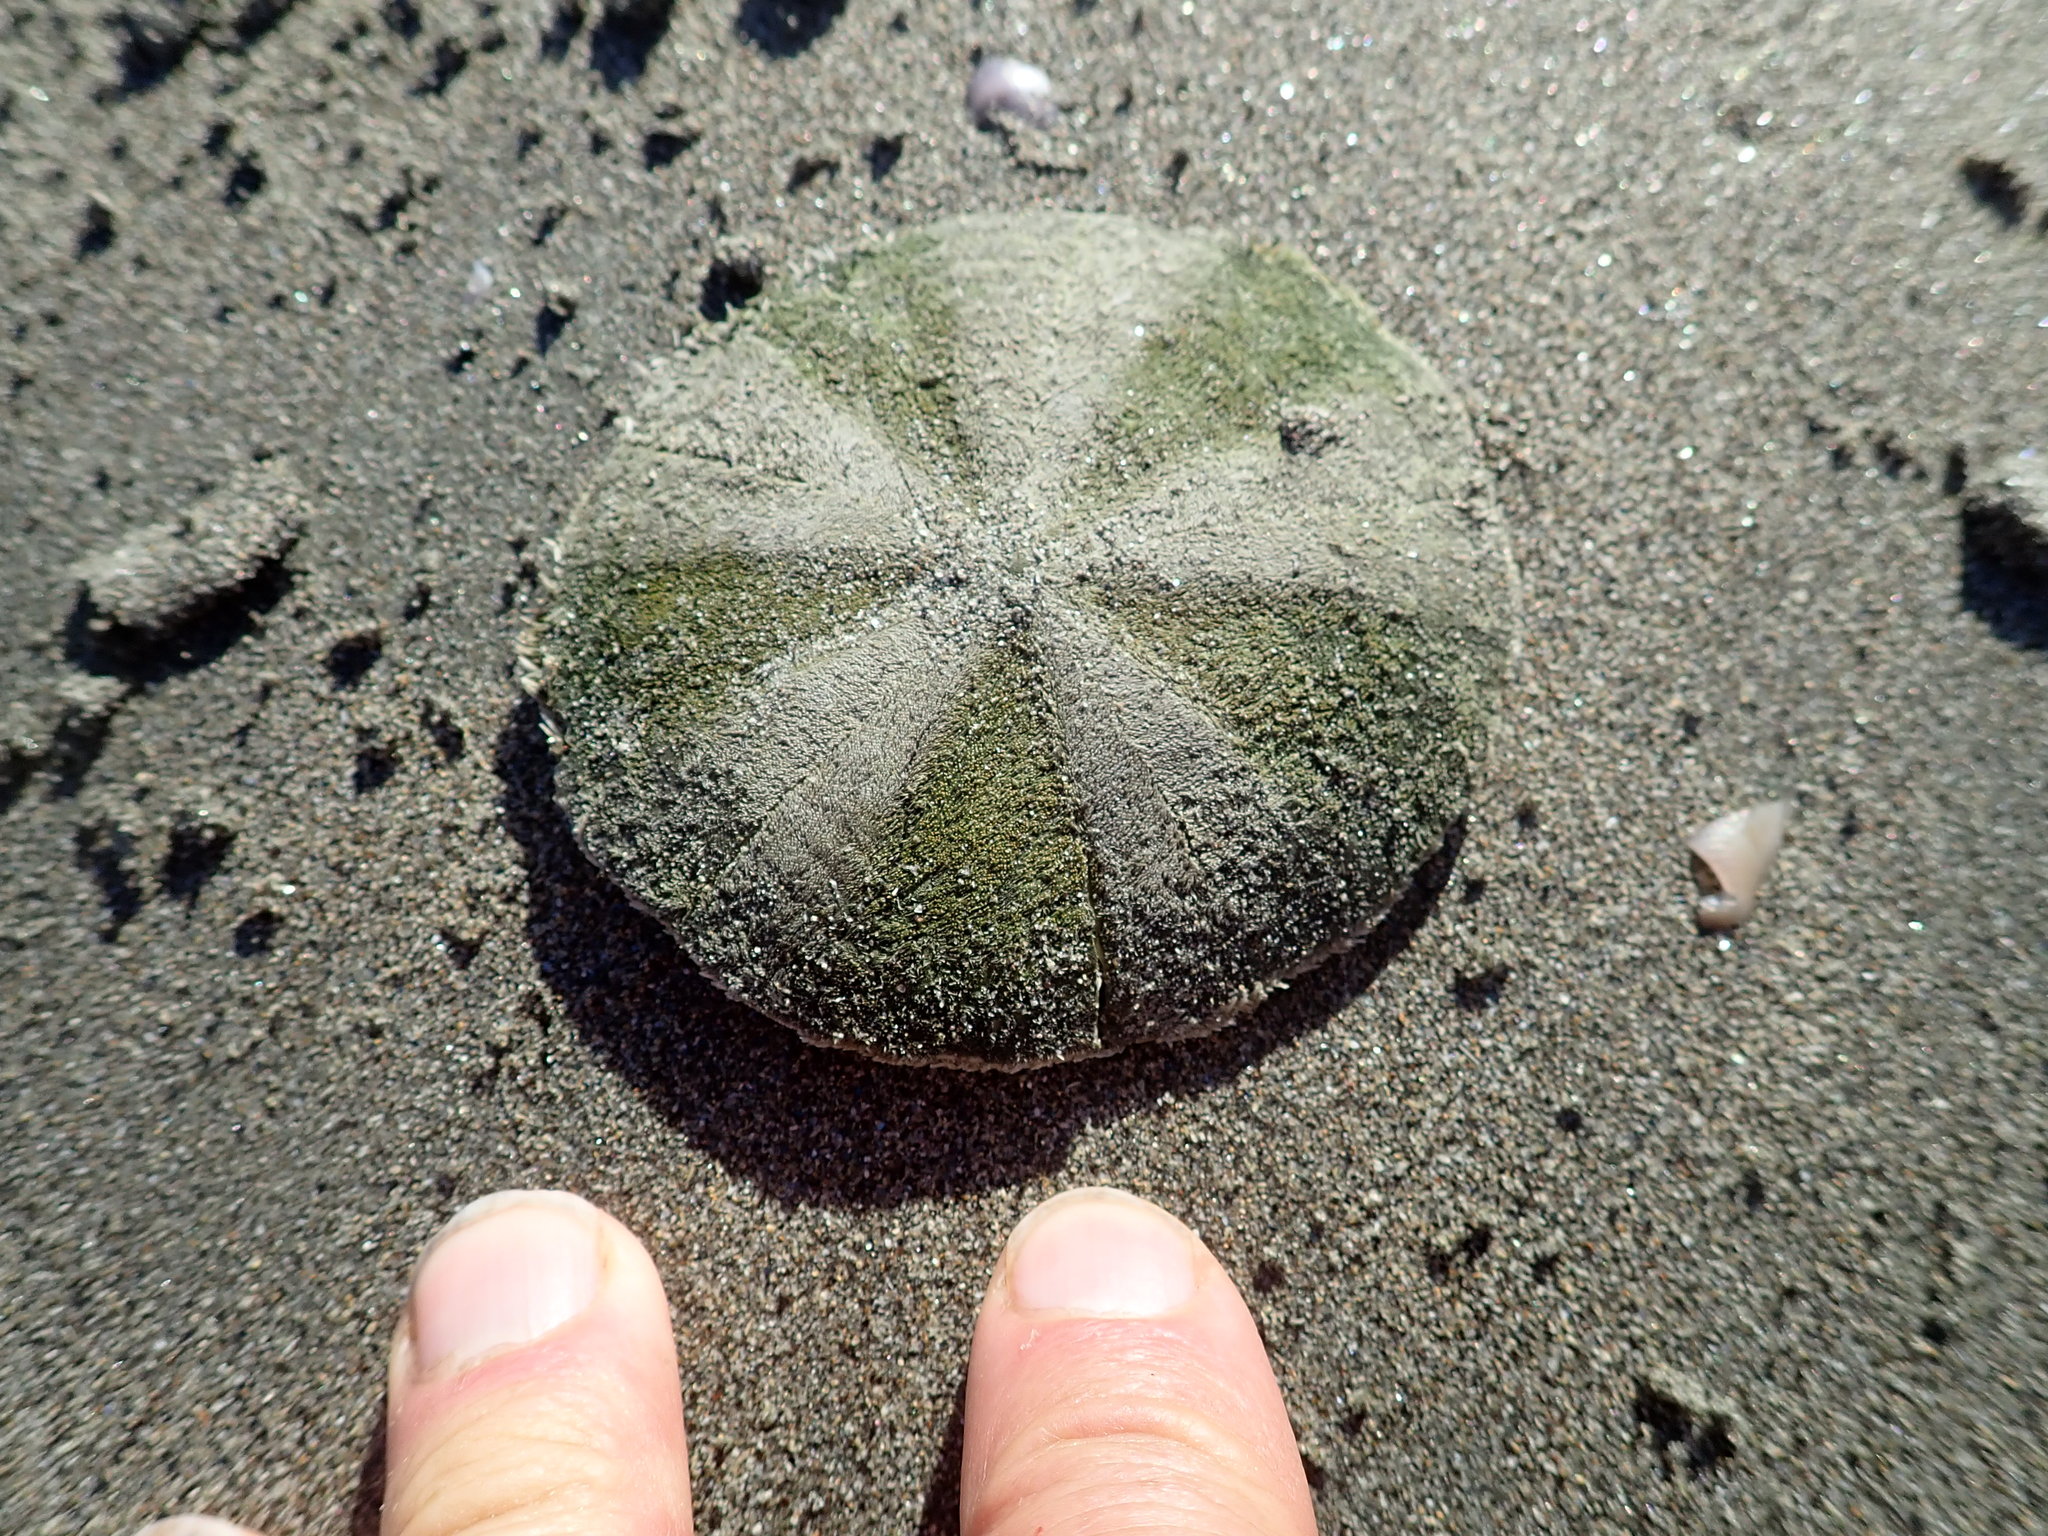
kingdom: Animalia
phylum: Echinodermata
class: Echinoidea
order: Clypeasteroida
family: Clypeasteridae
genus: Fellaster
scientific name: Fellaster zelandiae
